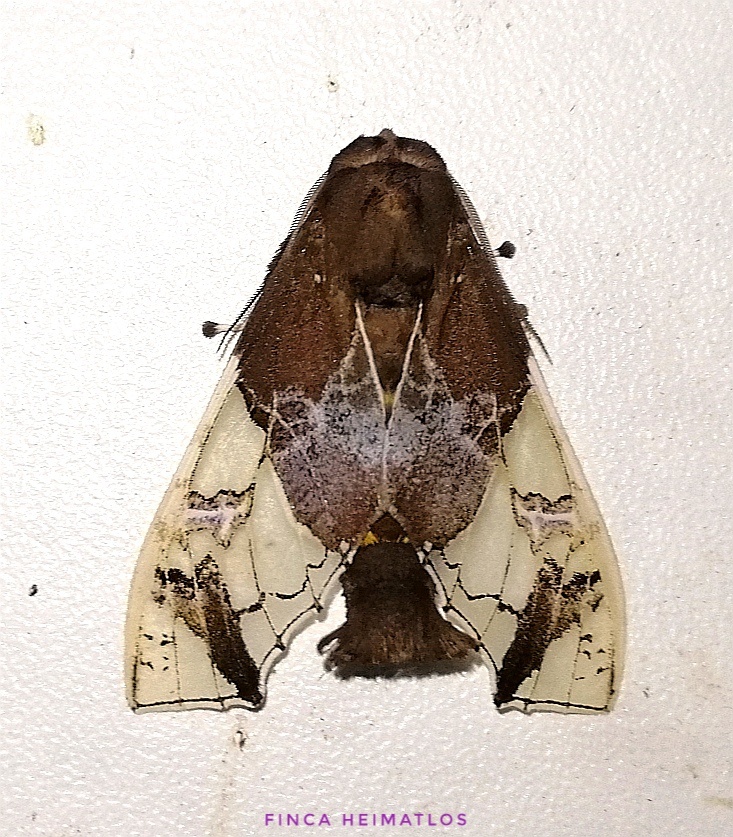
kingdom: Animalia
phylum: Arthropoda
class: Insecta
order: Lepidoptera
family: Erebidae
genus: Parathyris
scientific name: Parathyris semivitrea
